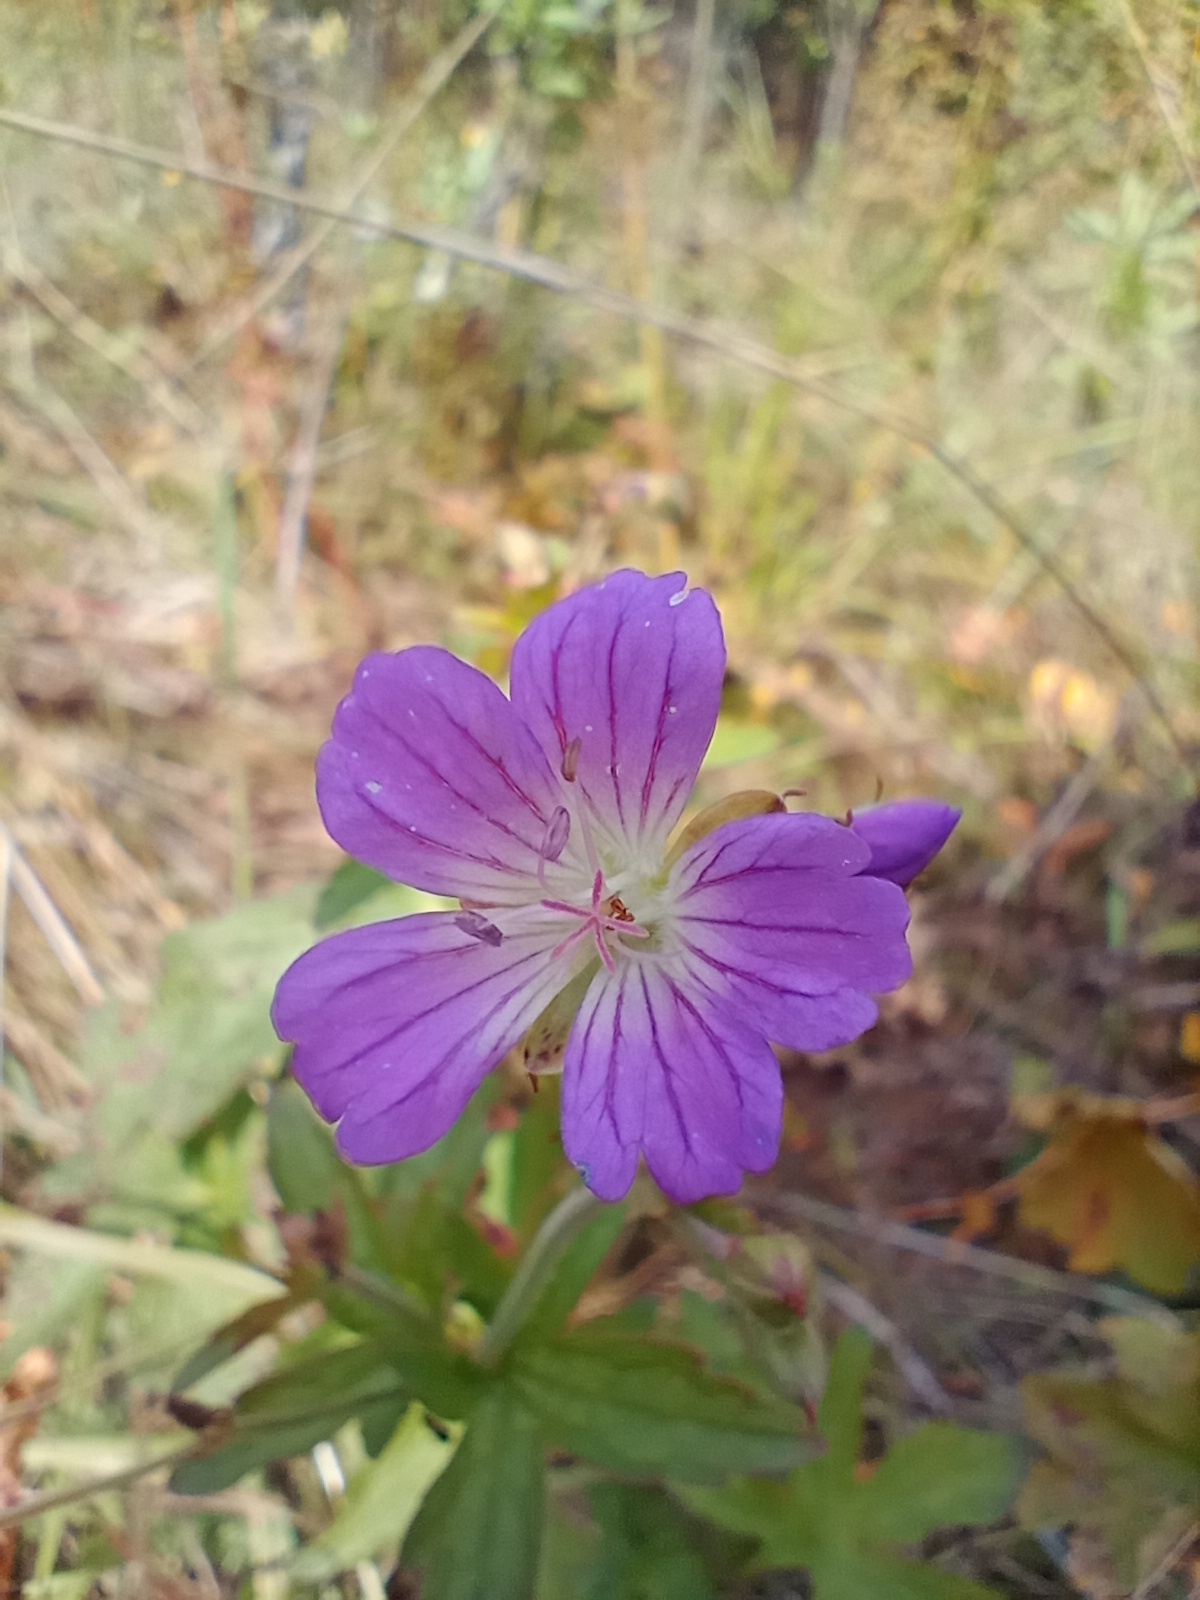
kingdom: Plantae
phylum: Tracheophyta
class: Magnoliopsida
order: Geraniales
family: Geraniaceae
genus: Geranium
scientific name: Geranium sylvaticum
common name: Wood crane's-bill
